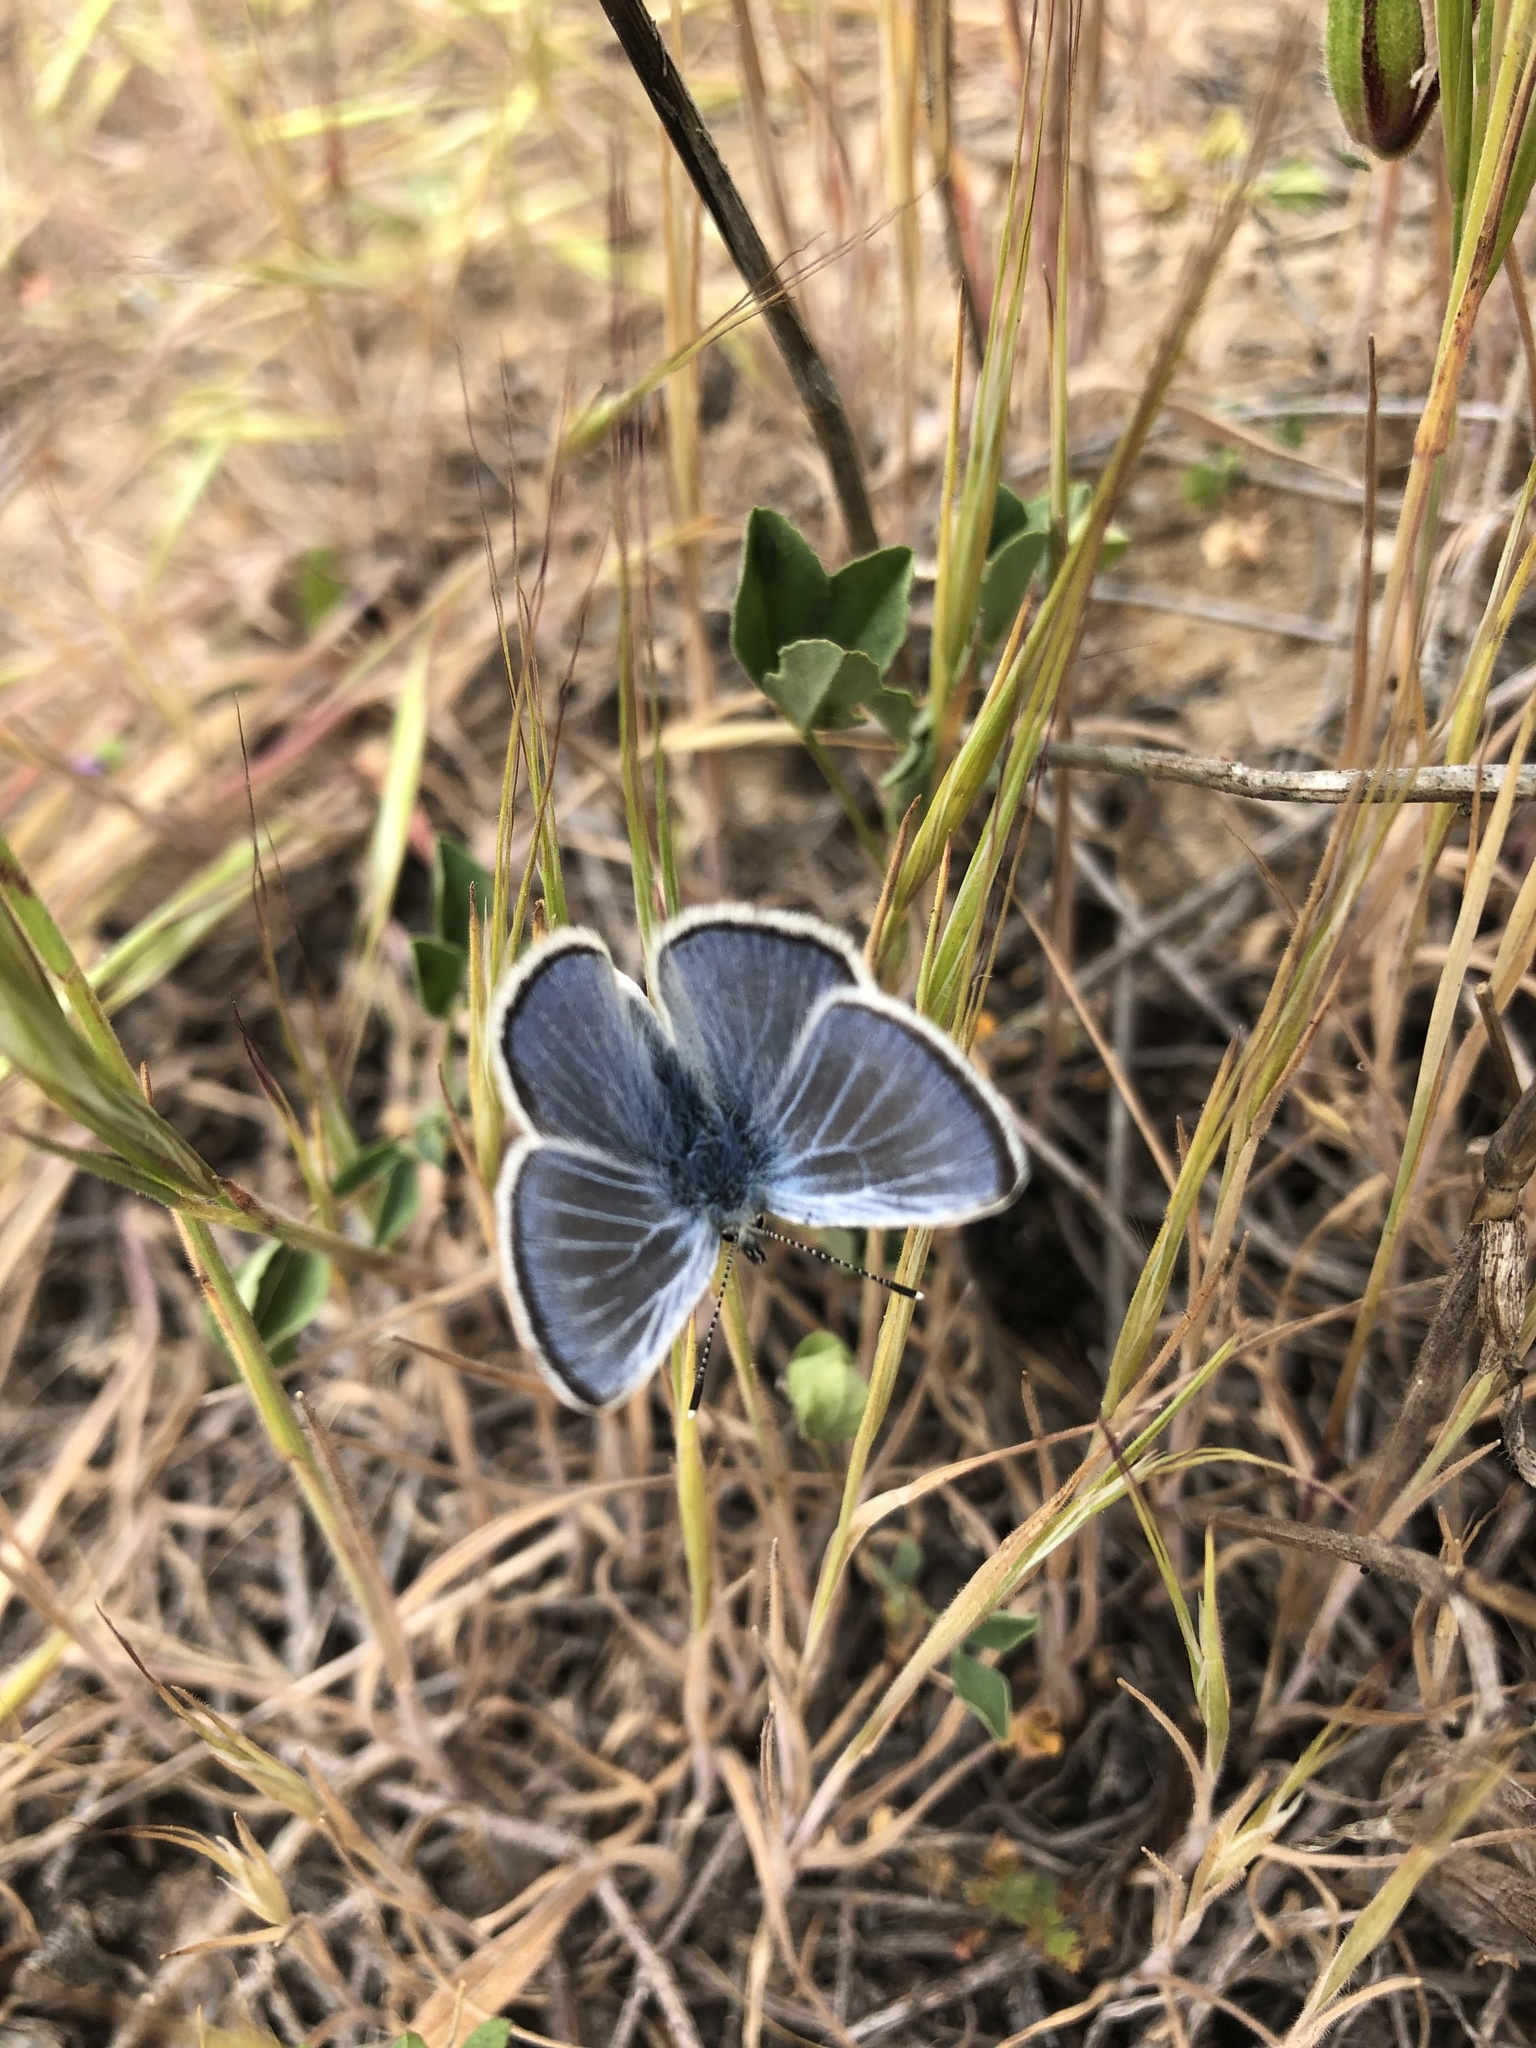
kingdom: Animalia
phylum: Arthropoda
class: Insecta
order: Lepidoptera
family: Lycaenidae
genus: Glaucopsyche
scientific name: Glaucopsyche lygdamus
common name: Silvery blue
